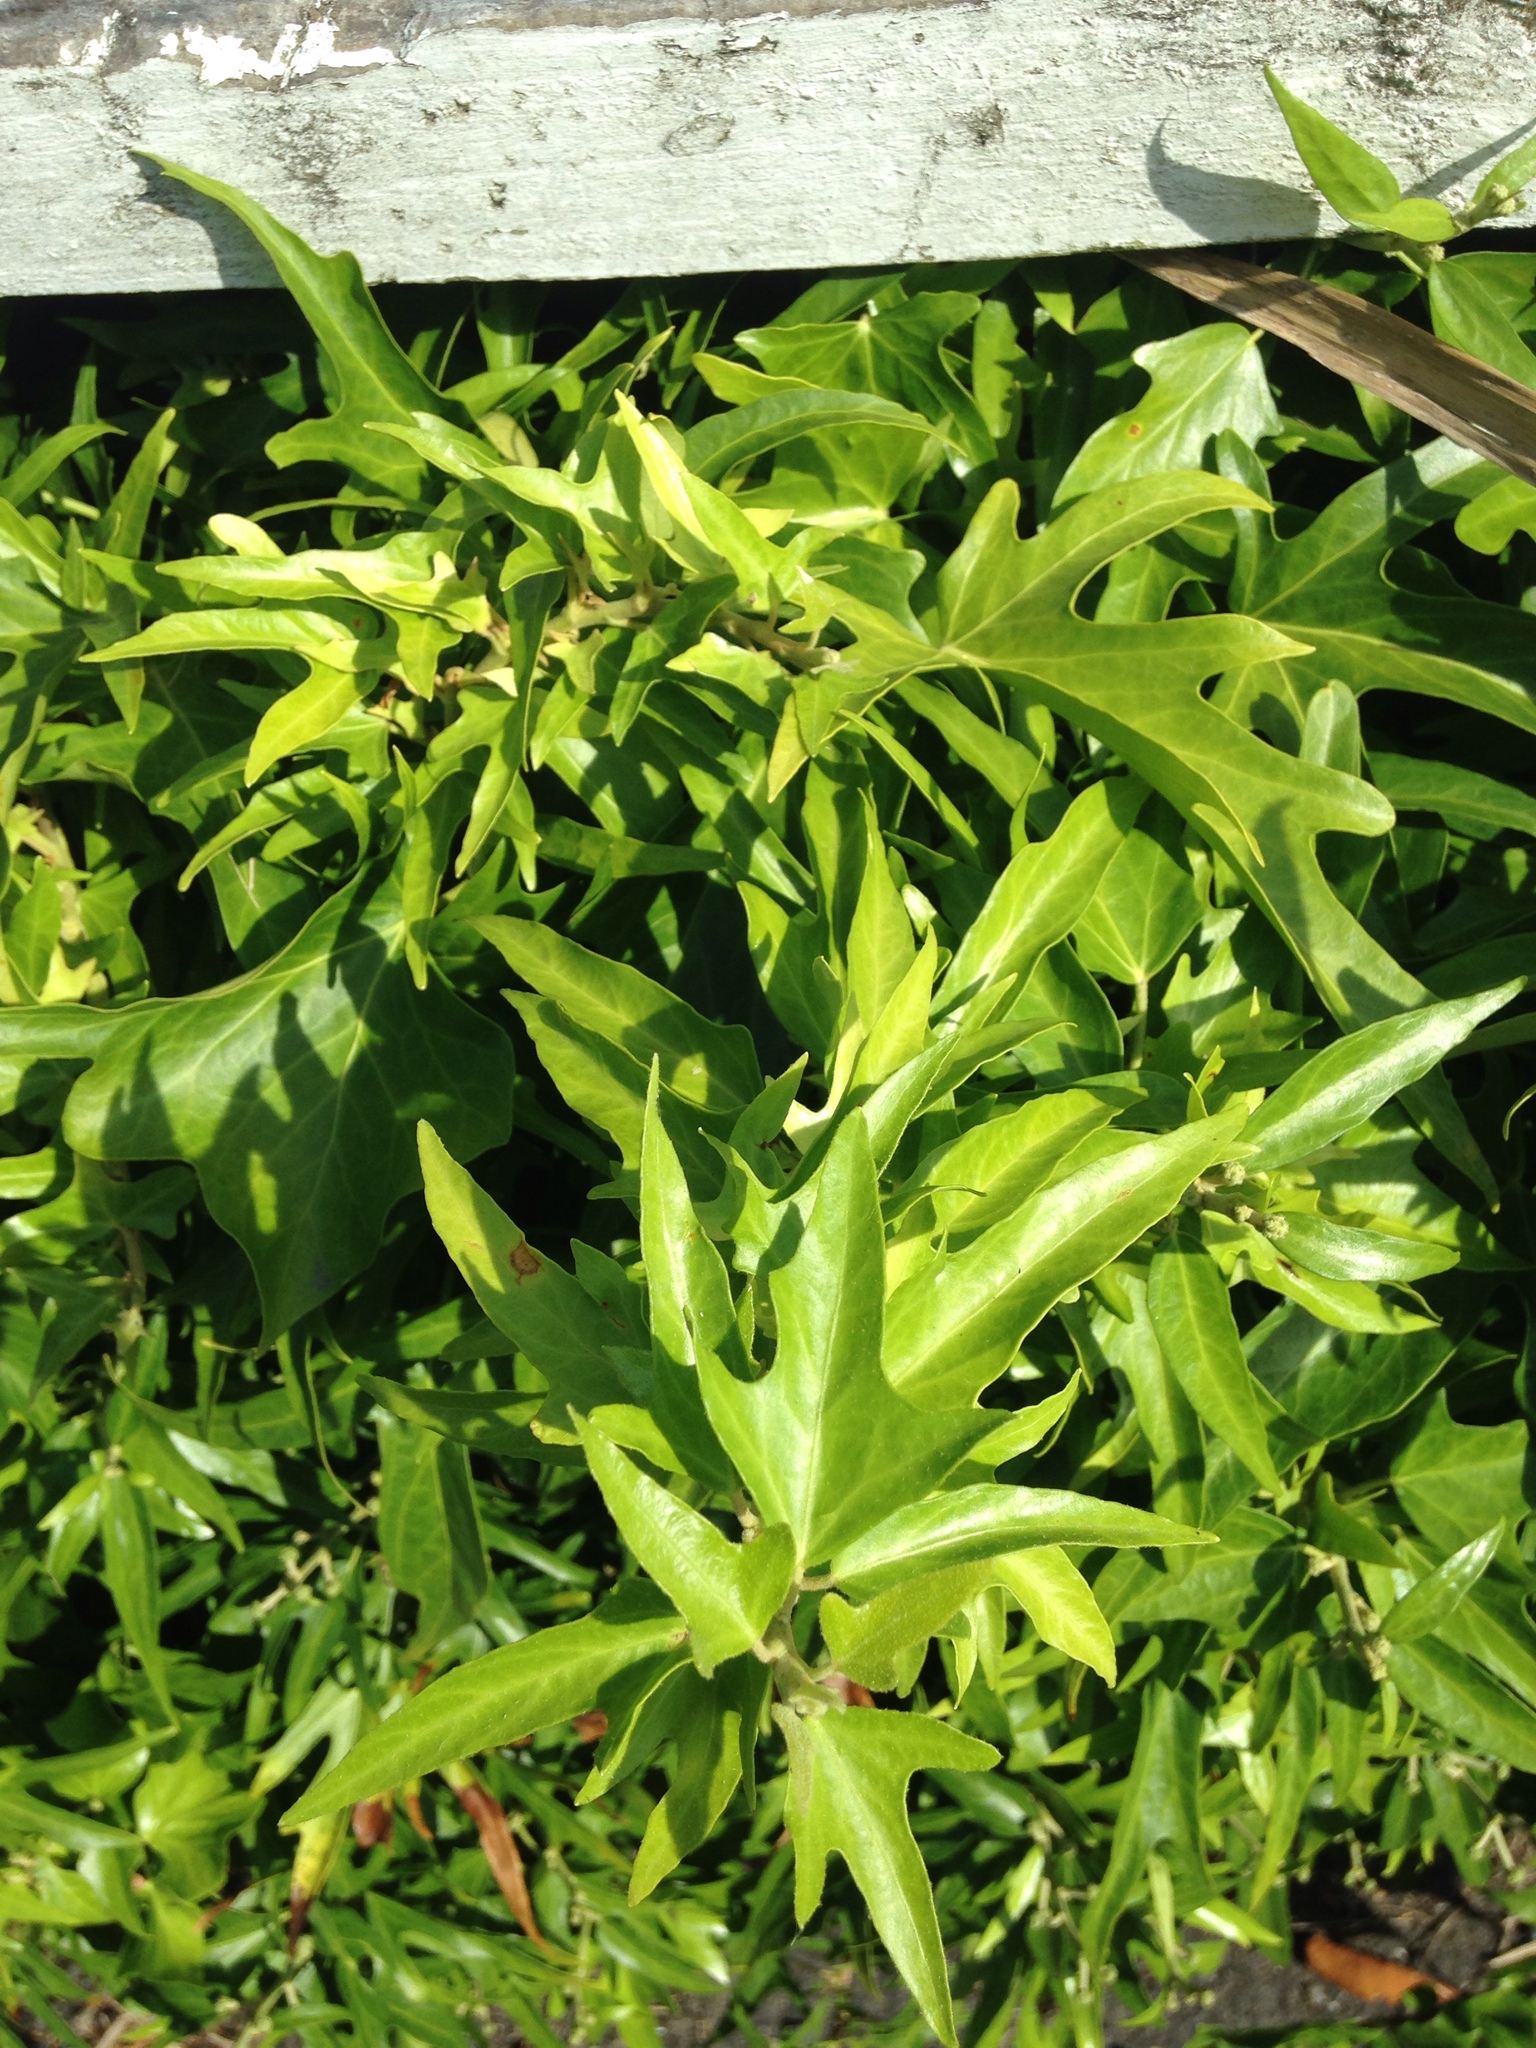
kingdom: Plantae
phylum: Tracheophyta
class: Magnoliopsida
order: Apiales
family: Araliaceae
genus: Hedera
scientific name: Hedera helix
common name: Ivy
